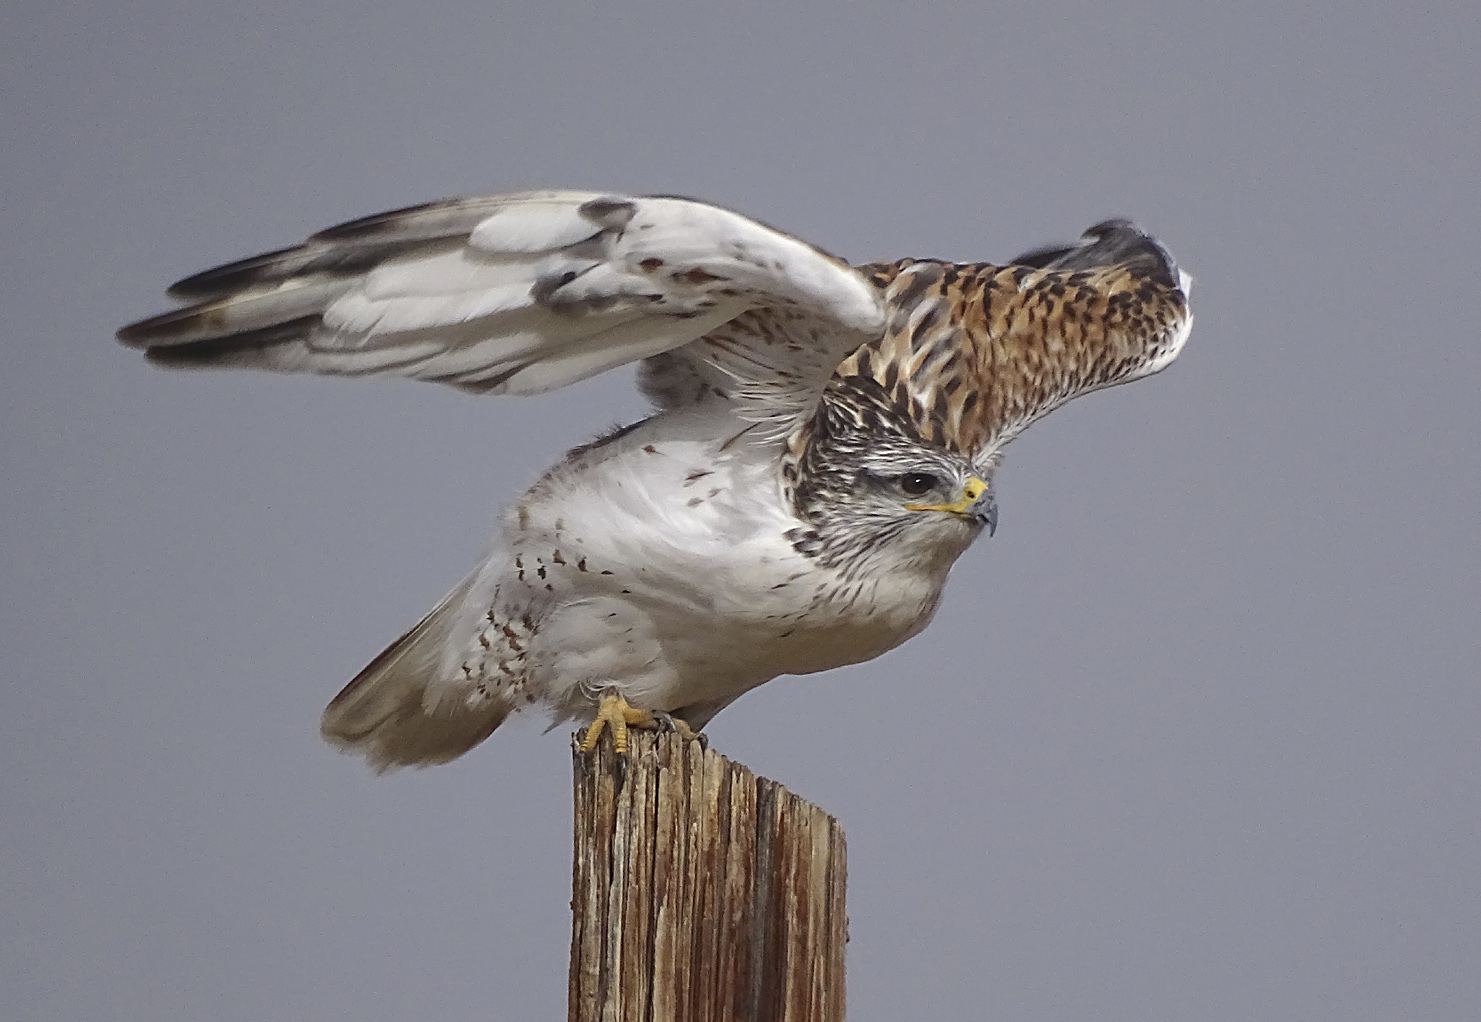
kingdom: Animalia
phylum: Chordata
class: Aves
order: Accipitriformes
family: Accipitridae
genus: Buteo
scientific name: Buteo regalis
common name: Ferruginous hawk
